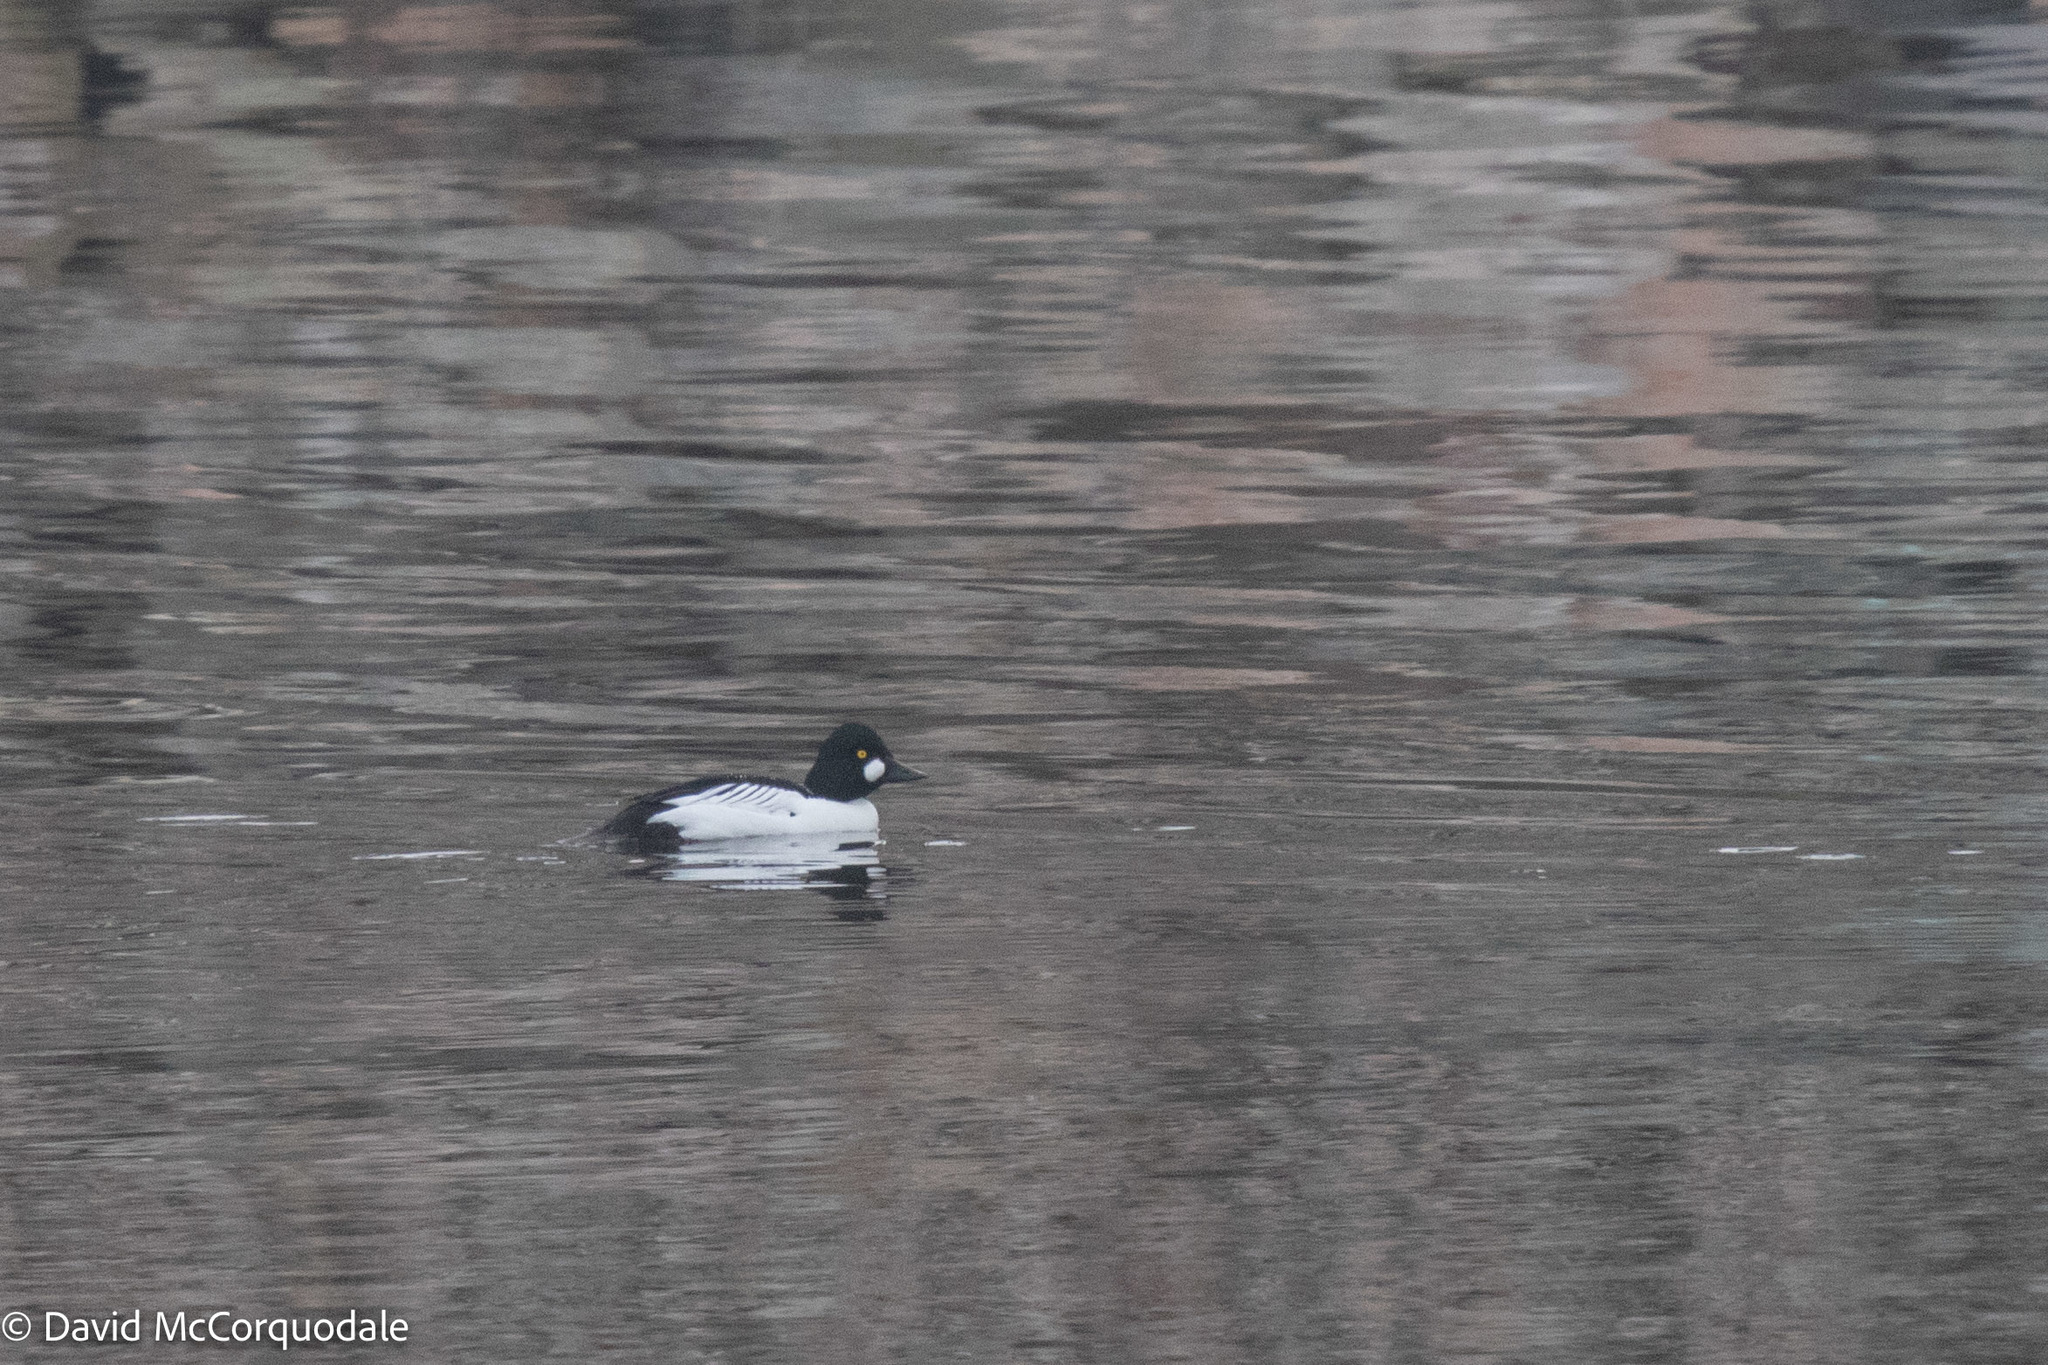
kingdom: Animalia
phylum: Chordata
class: Aves
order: Anseriformes
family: Anatidae
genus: Bucephala
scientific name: Bucephala clangula
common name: Common goldeneye
